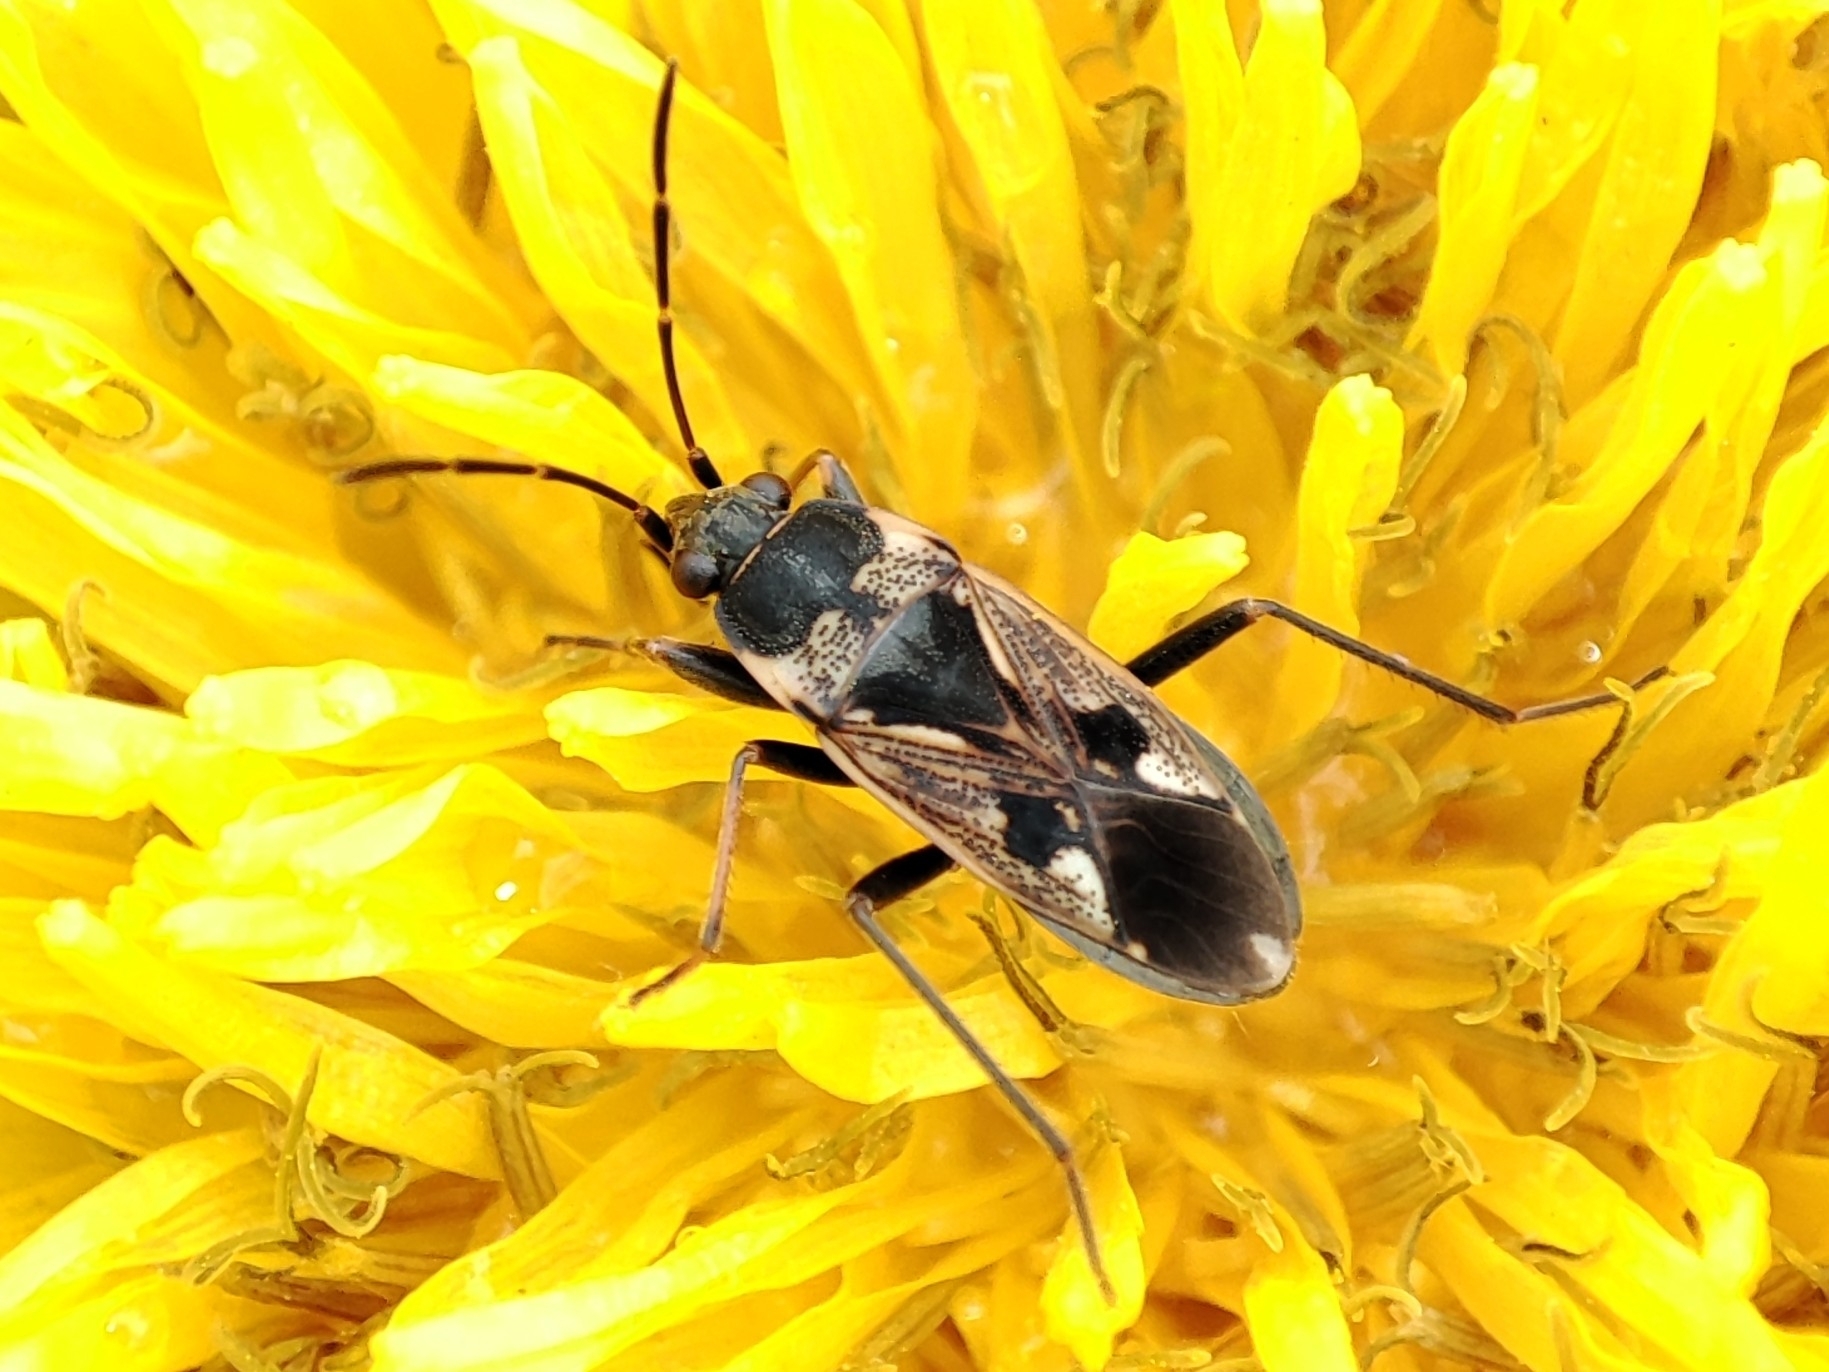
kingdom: Animalia
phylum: Arthropoda
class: Insecta
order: Hemiptera
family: Rhyparochromidae
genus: Rhyparochromus
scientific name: Rhyparochromus vulgaris
